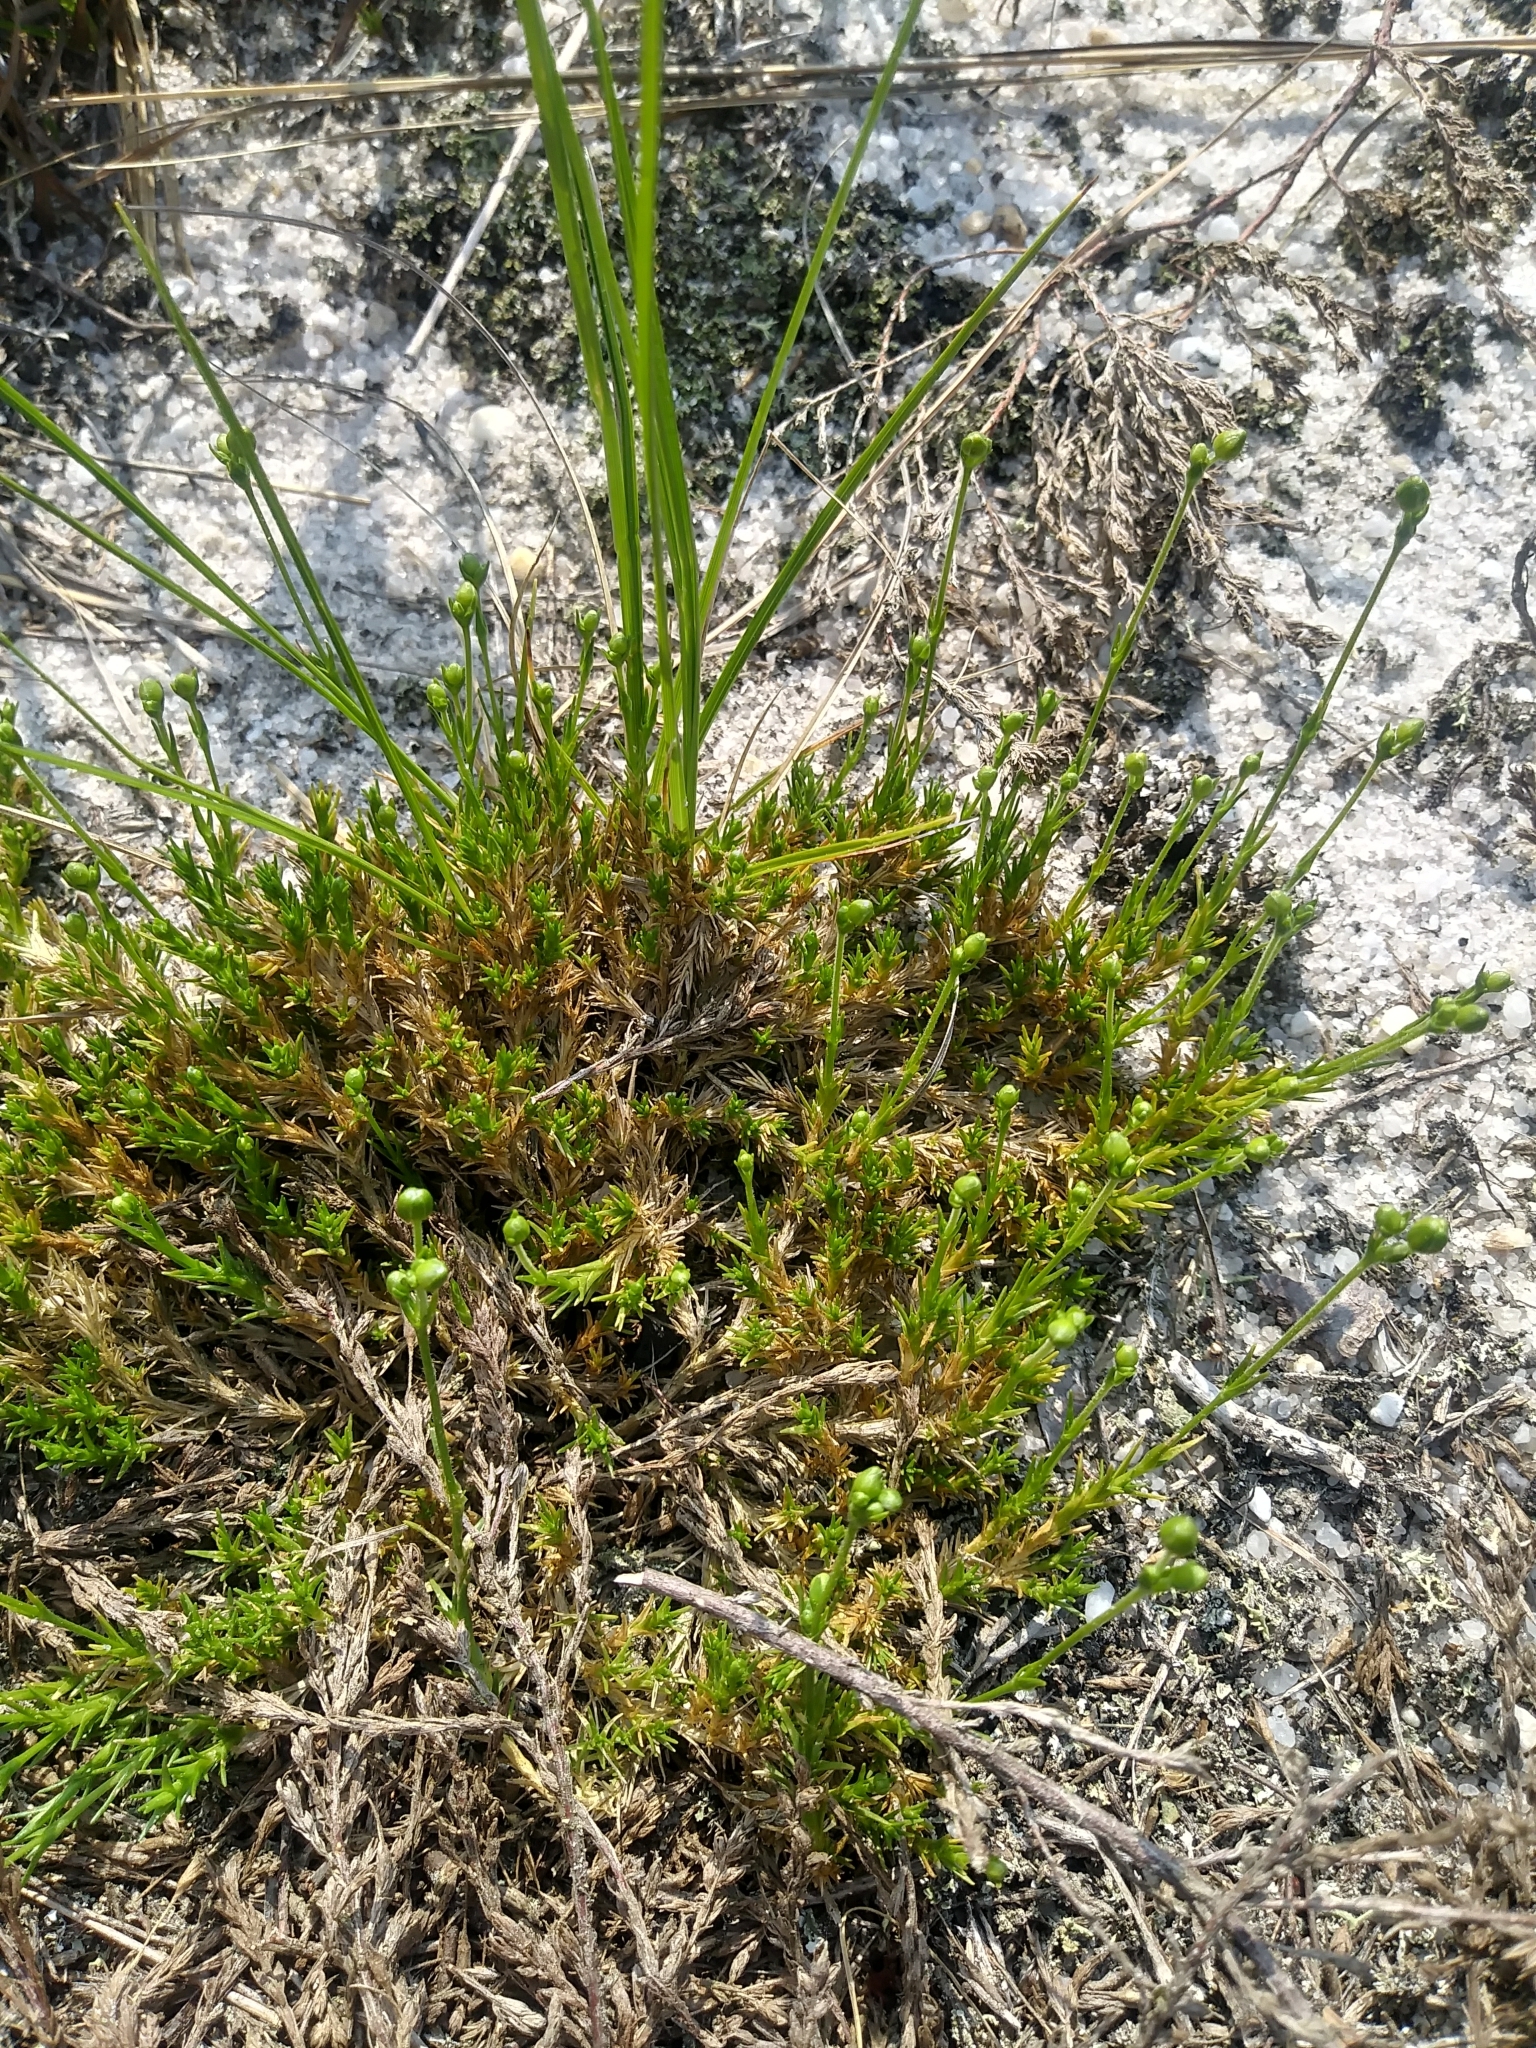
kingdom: Plantae
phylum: Tracheophyta
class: Magnoliopsida
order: Caryophyllales
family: Caryophyllaceae
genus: Geocarpon
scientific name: Geocarpon carolinianum
